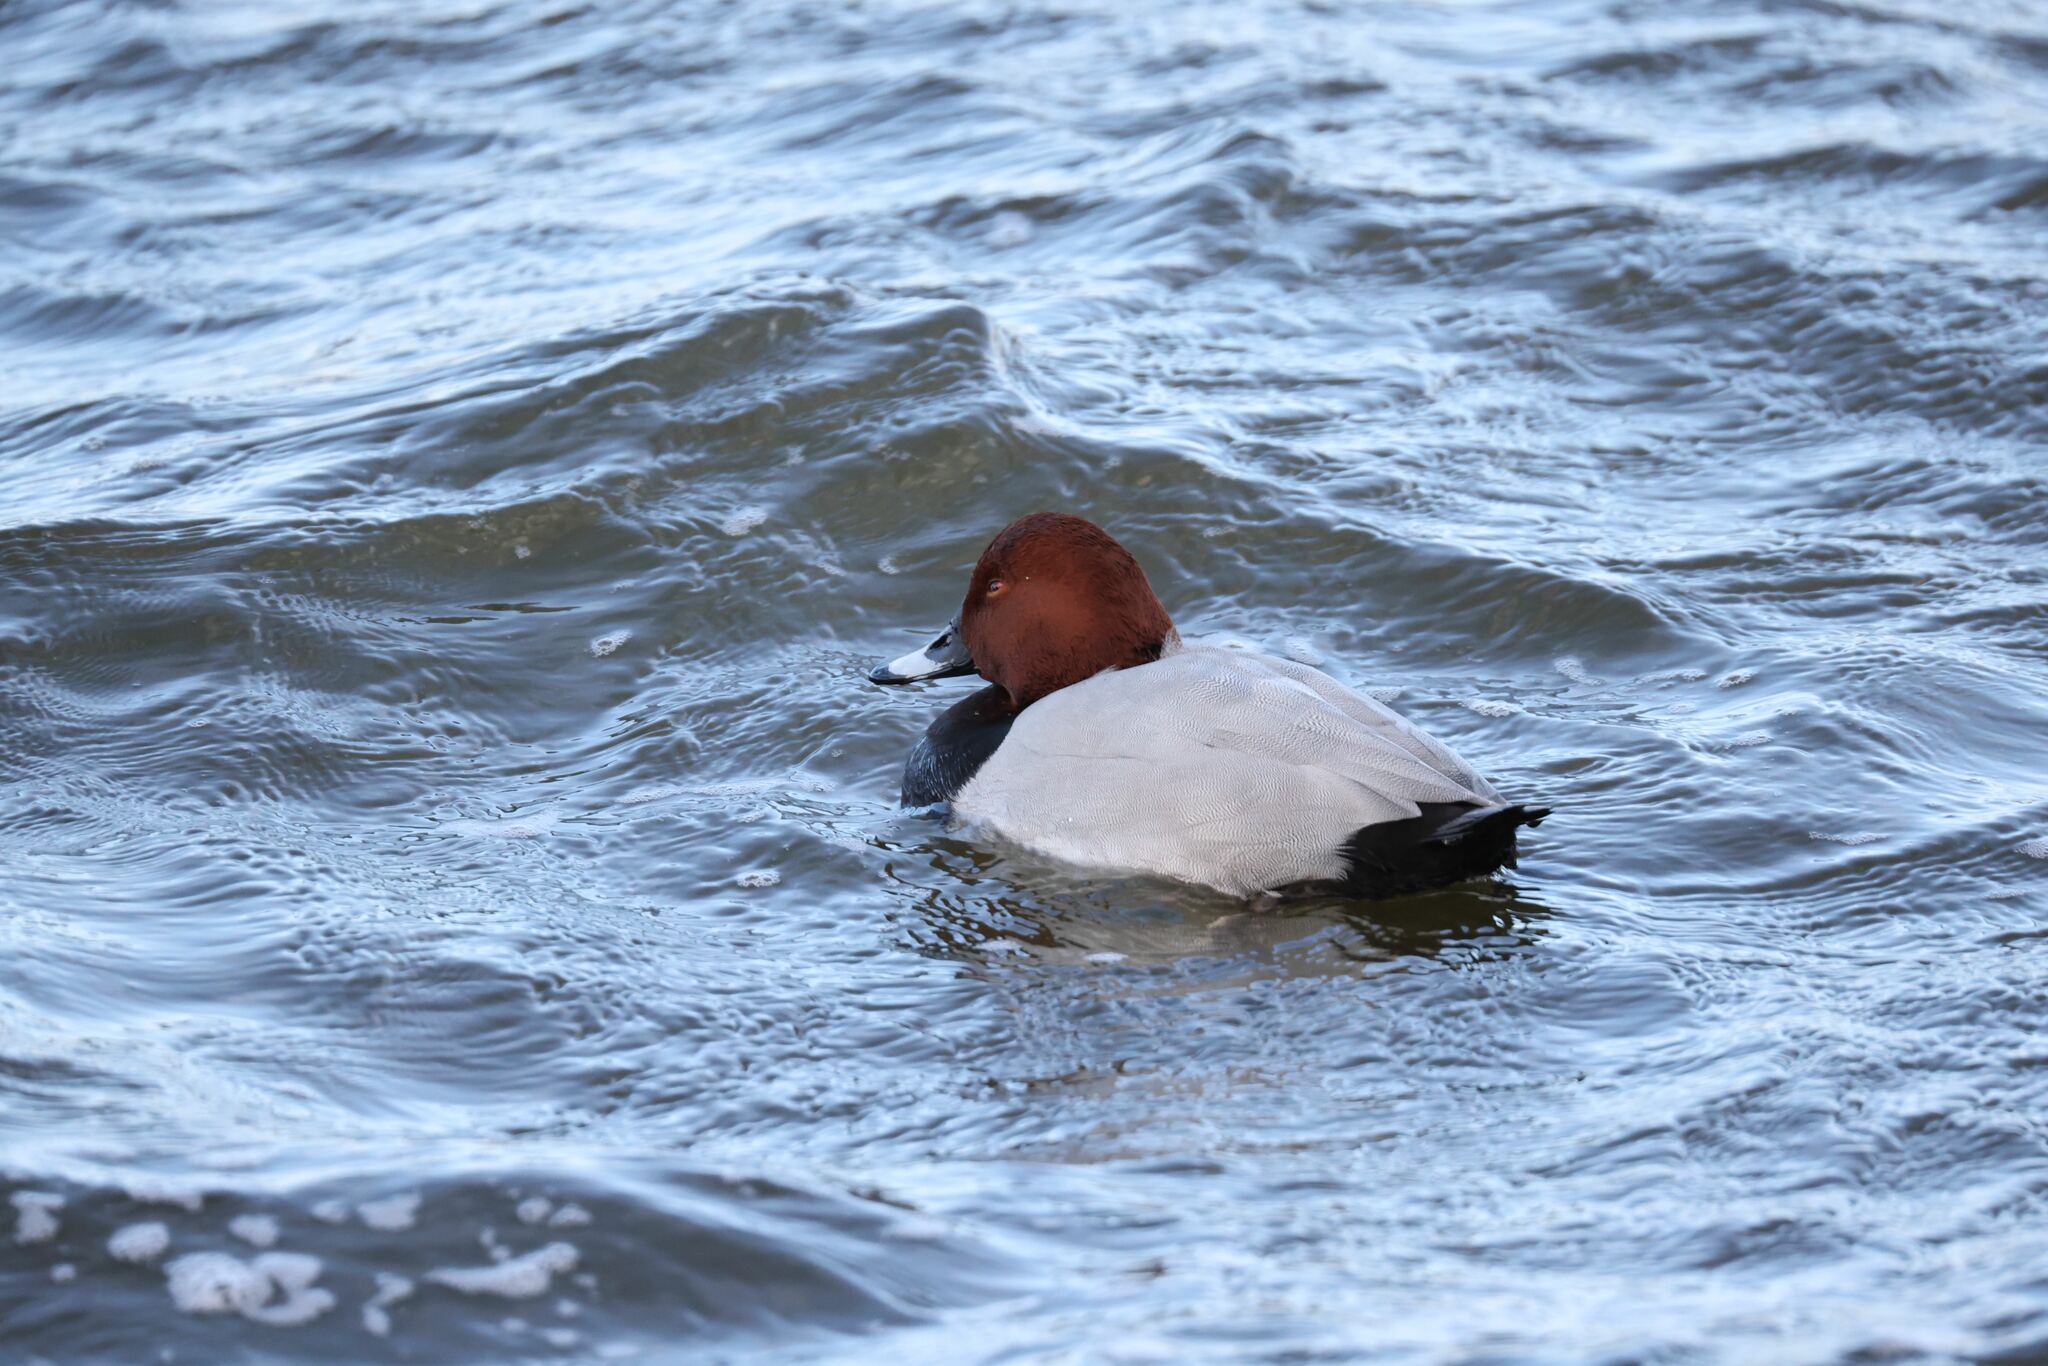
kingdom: Animalia
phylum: Chordata
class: Aves
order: Anseriformes
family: Anatidae
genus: Aythya
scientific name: Aythya ferina
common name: Common pochard
